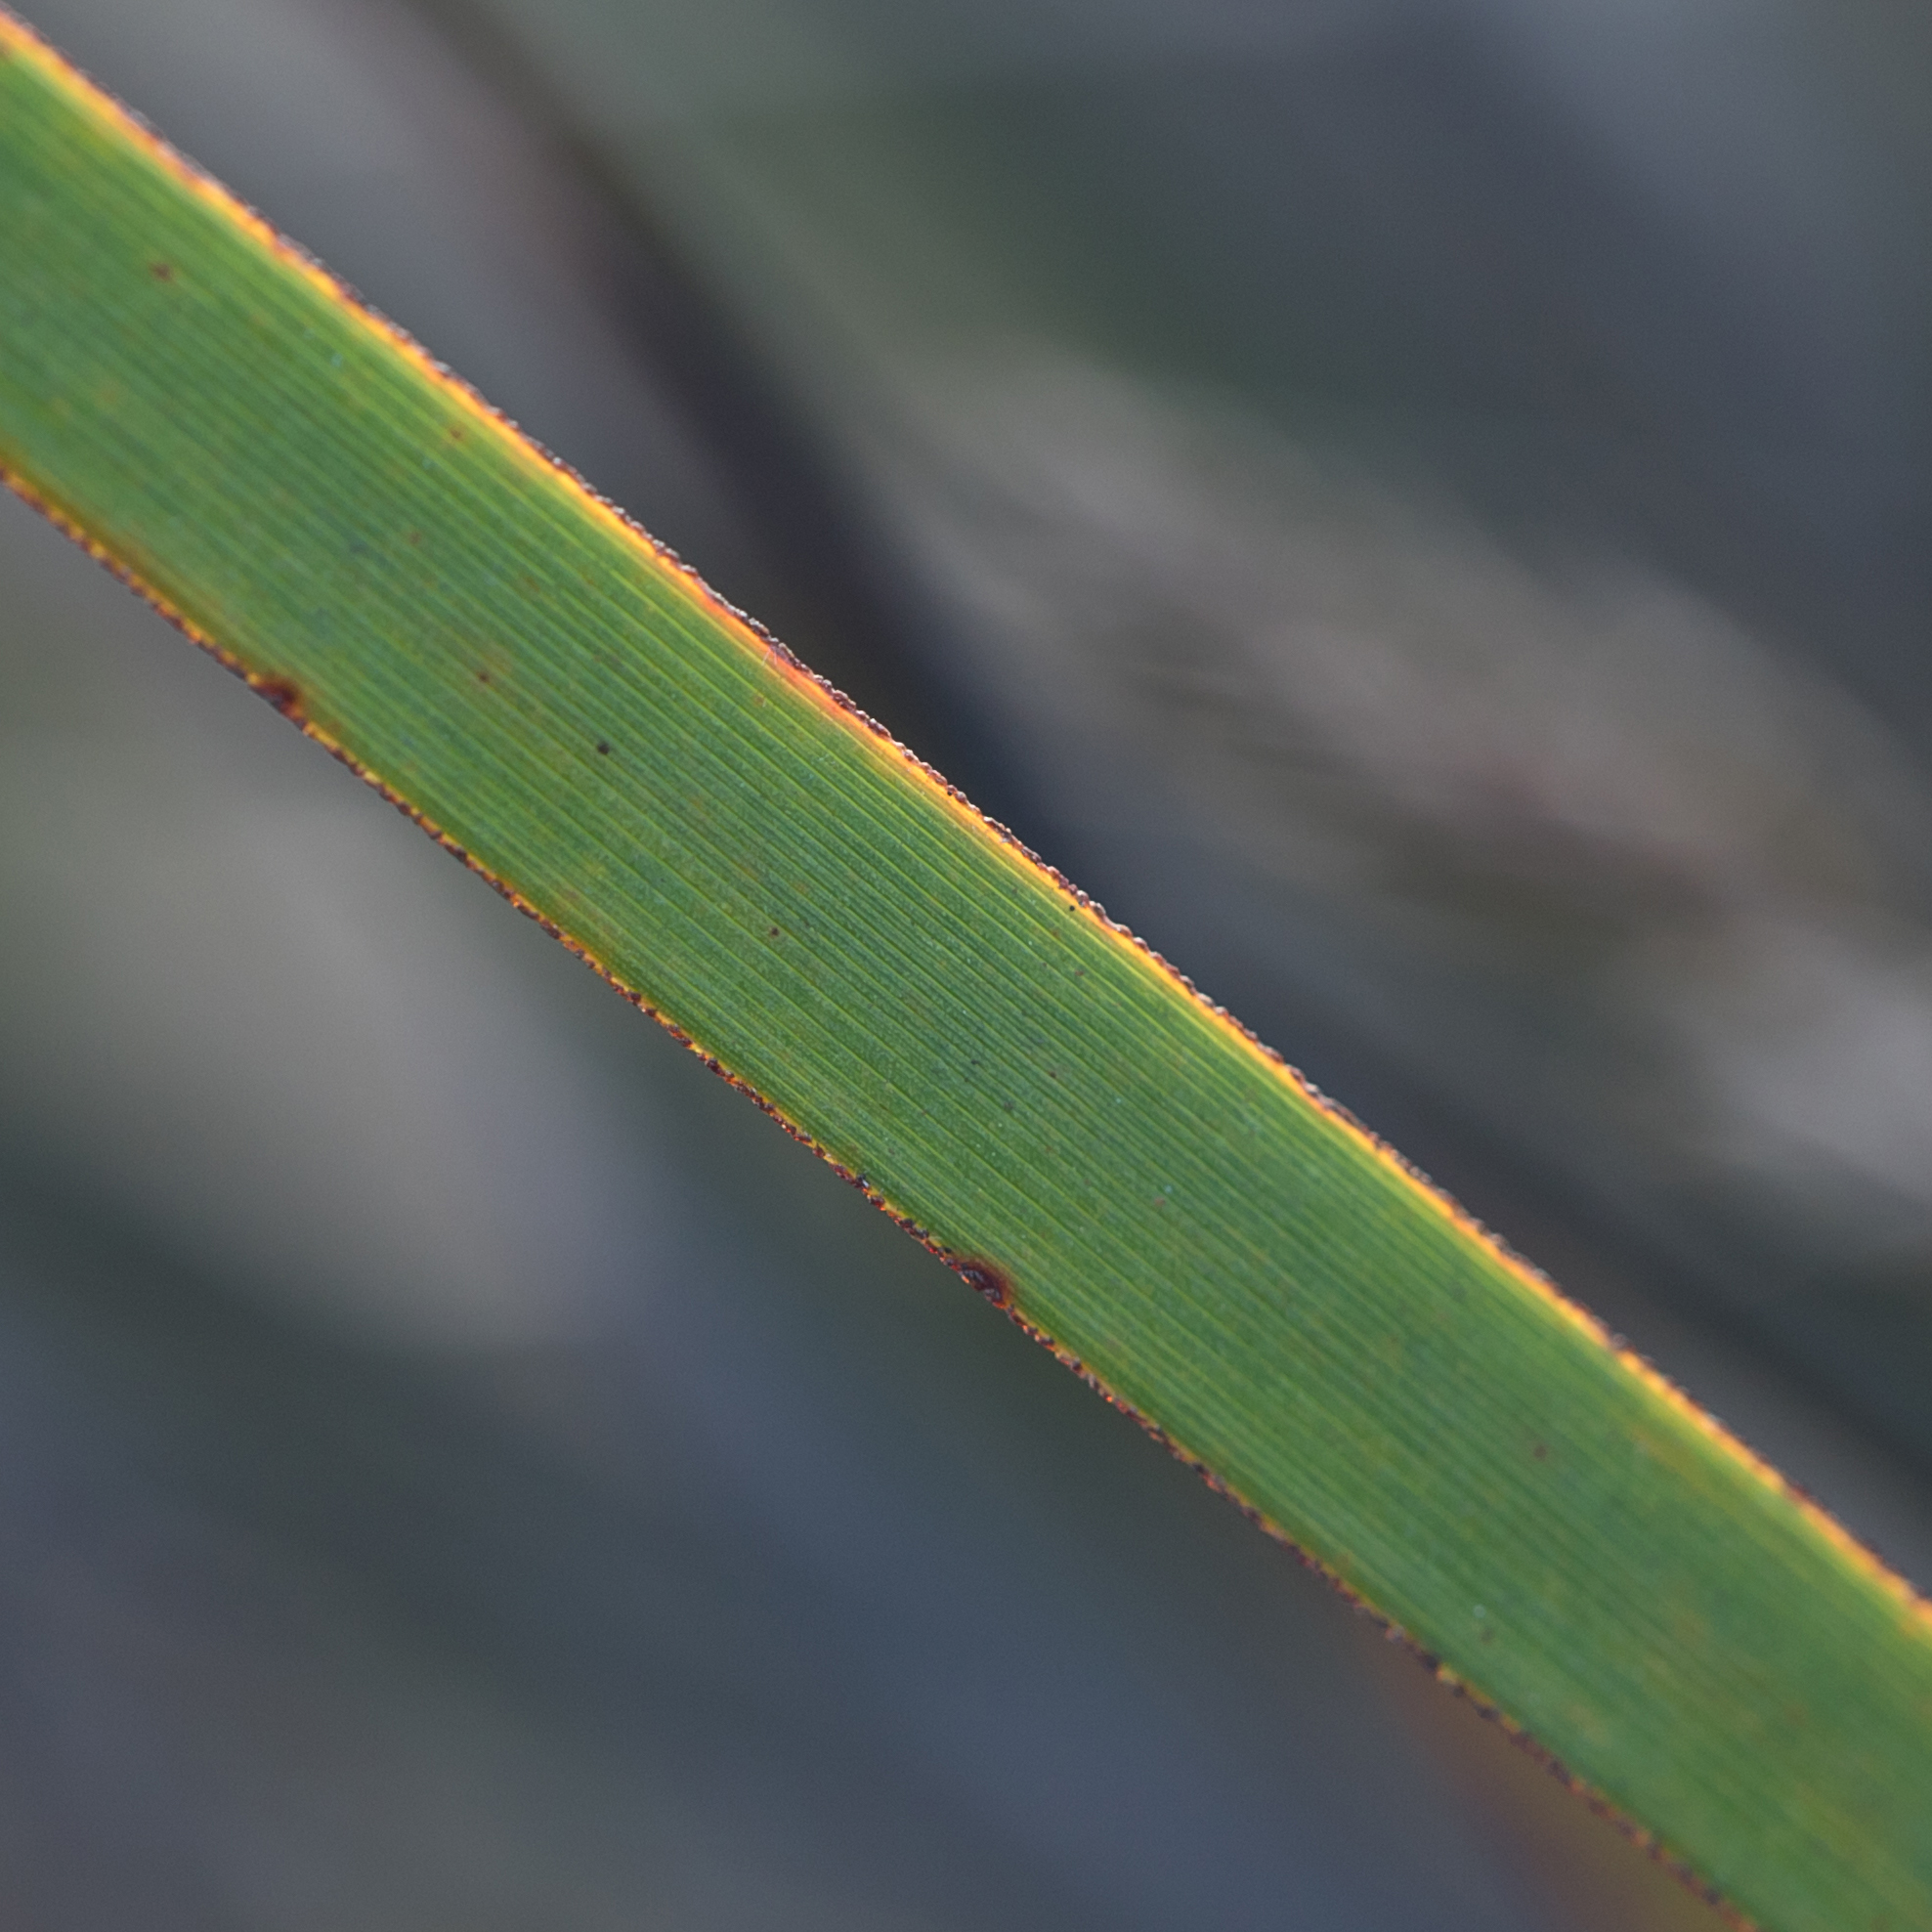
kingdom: Plantae
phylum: Tracheophyta
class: Liliopsida
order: Poales
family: Cyperaceae
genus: Lepidosperma
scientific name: Lepidosperma viscidum
